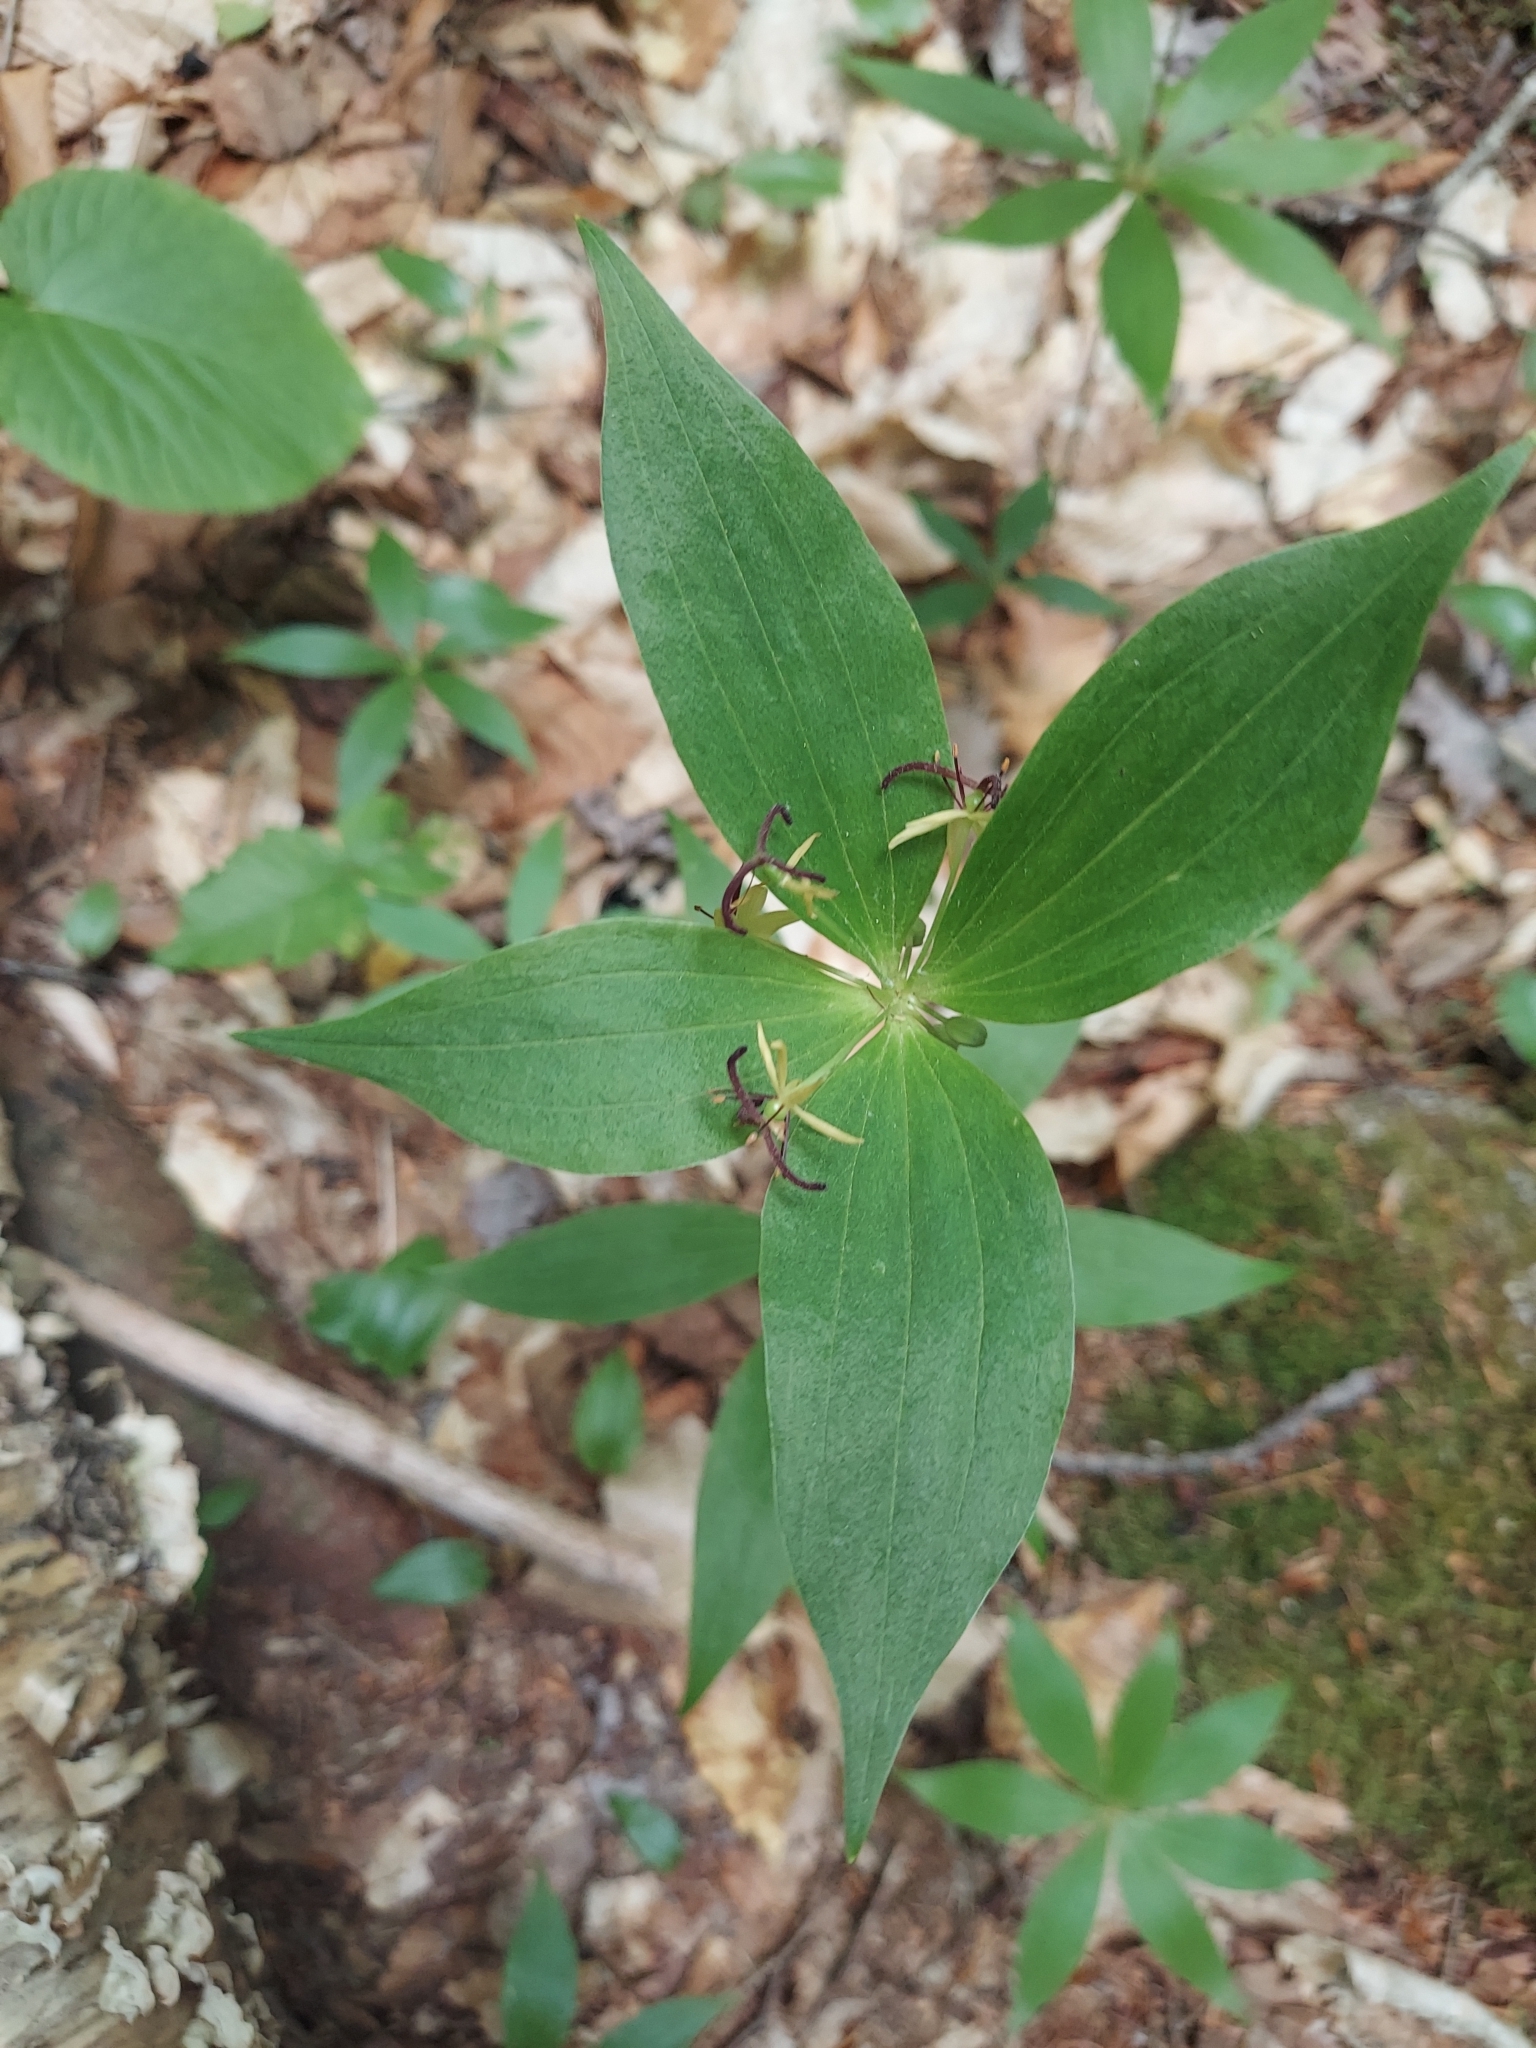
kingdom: Plantae
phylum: Tracheophyta
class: Liliopsida
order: Liliales
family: Liliaceae
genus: Medeola
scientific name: Medeola virginiana
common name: Indian cucumber-root
